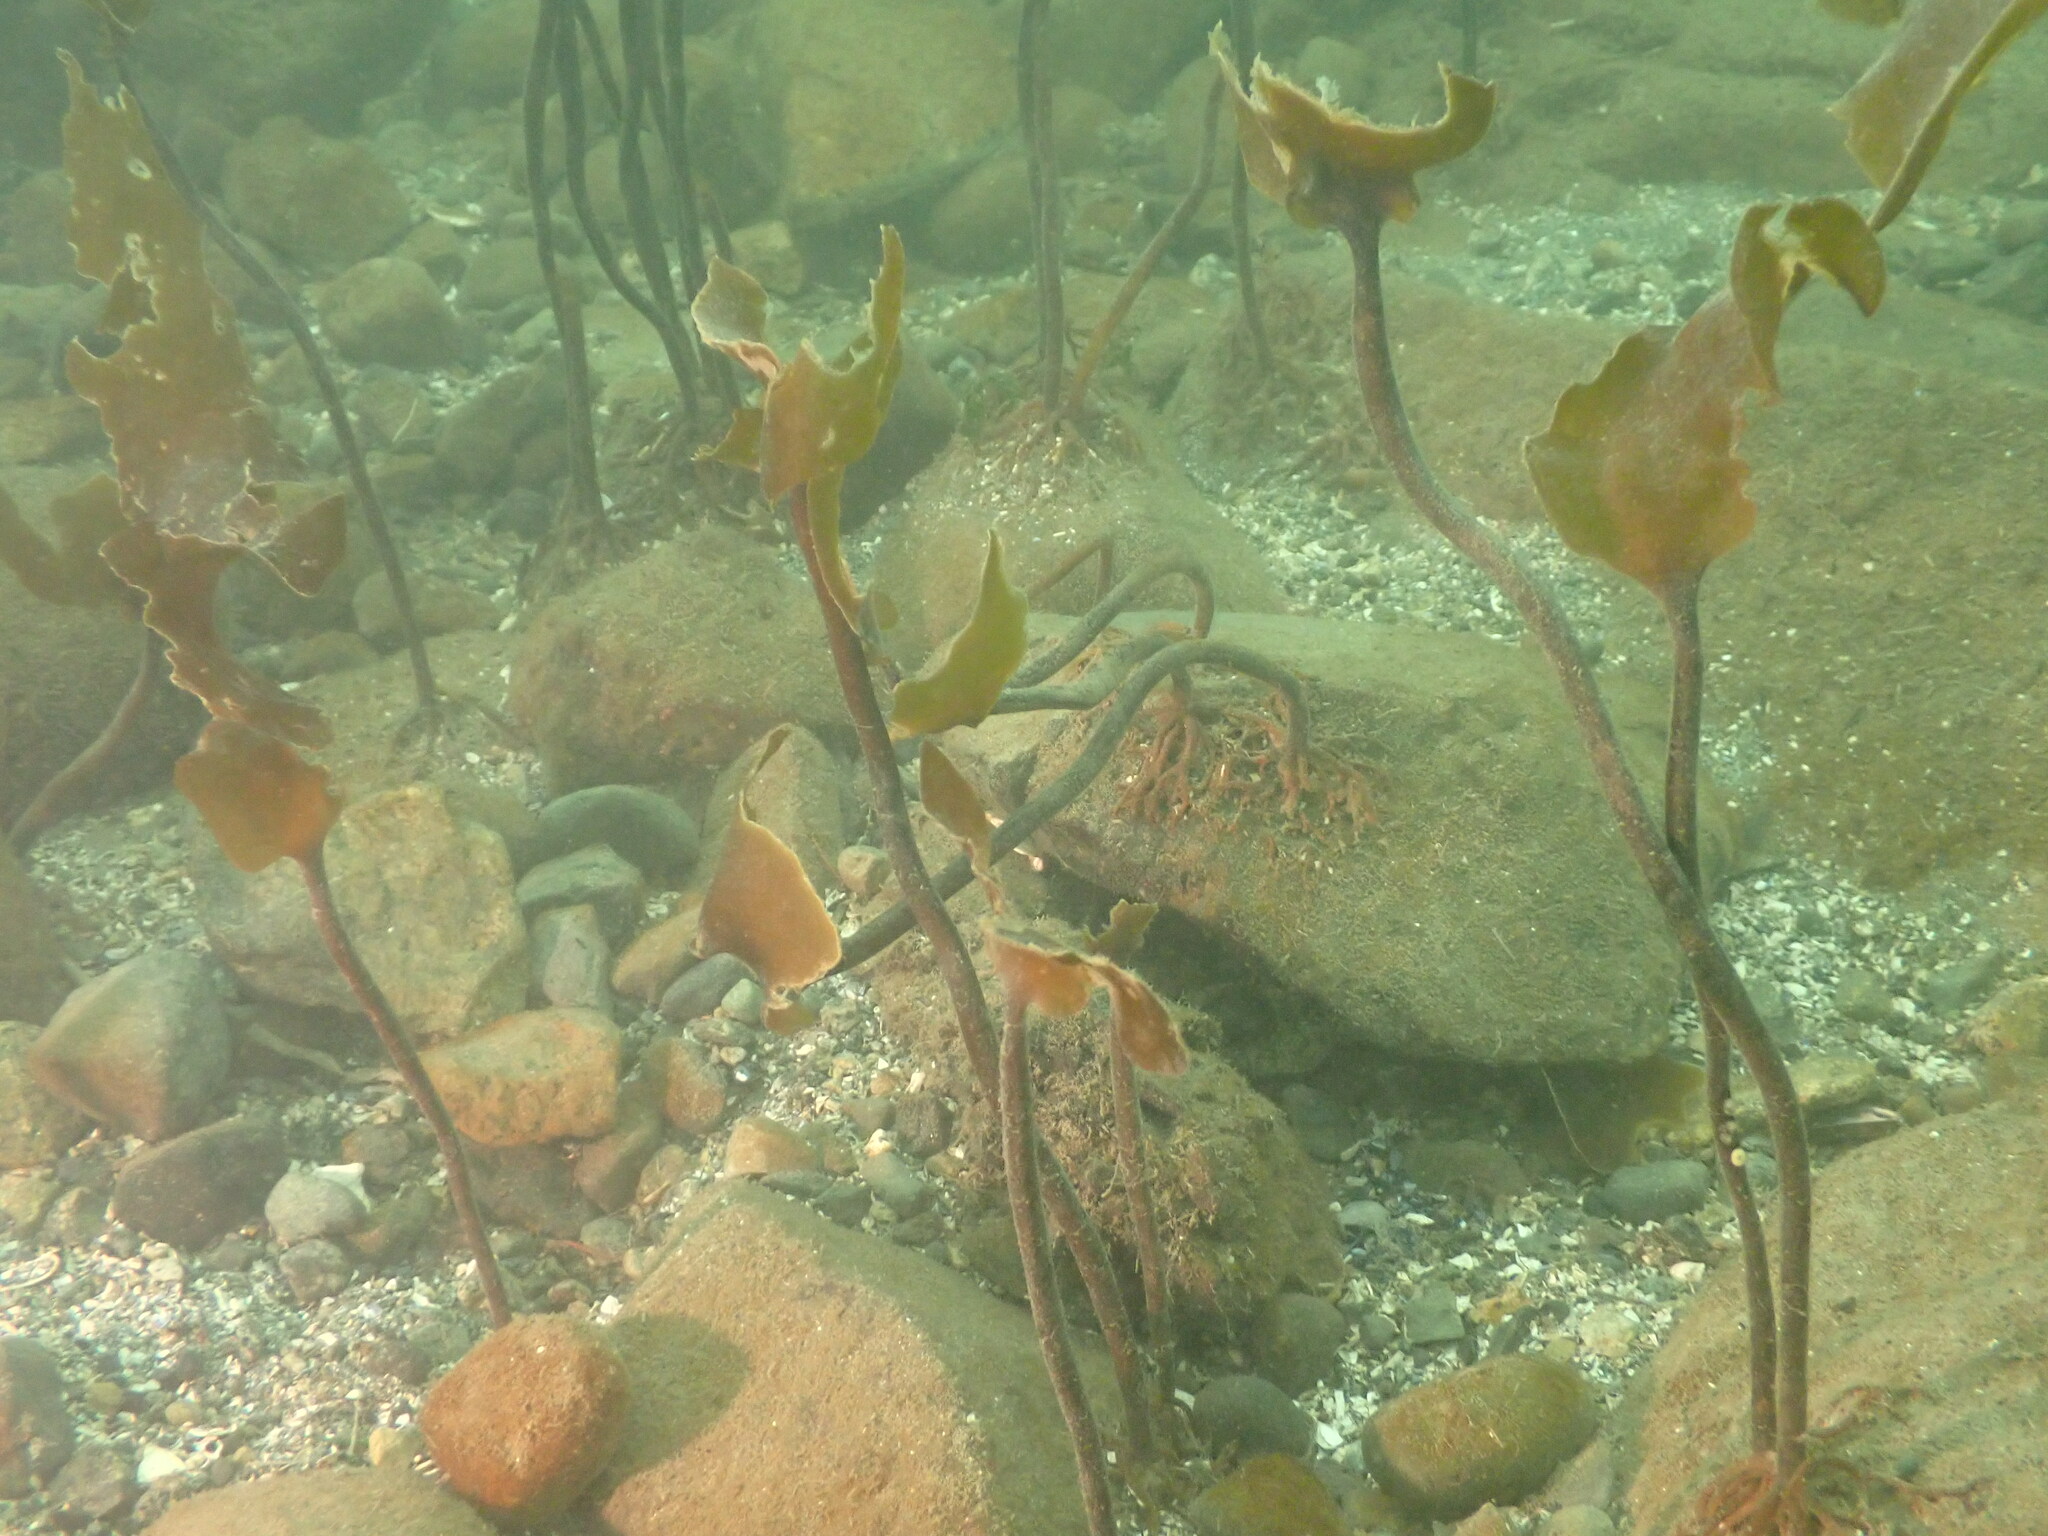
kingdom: Chromista
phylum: Ochrophyta
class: Phaeophyceae
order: Laminariales
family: Laminariaceae
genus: Saccharina
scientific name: Saccharina latissima
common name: Poor man's weather glass
